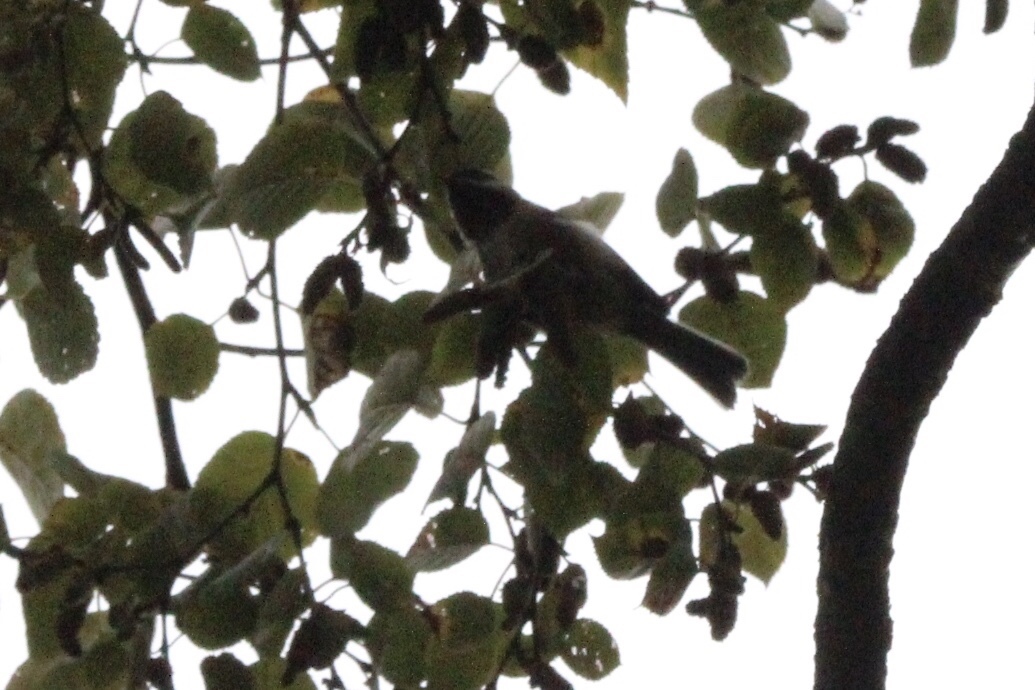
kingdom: Animalia
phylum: Chordata
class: Aves
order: Passeriformes
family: Paridae
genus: Poecile
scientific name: Poecile atricapillus
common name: Black-capped chickadee
